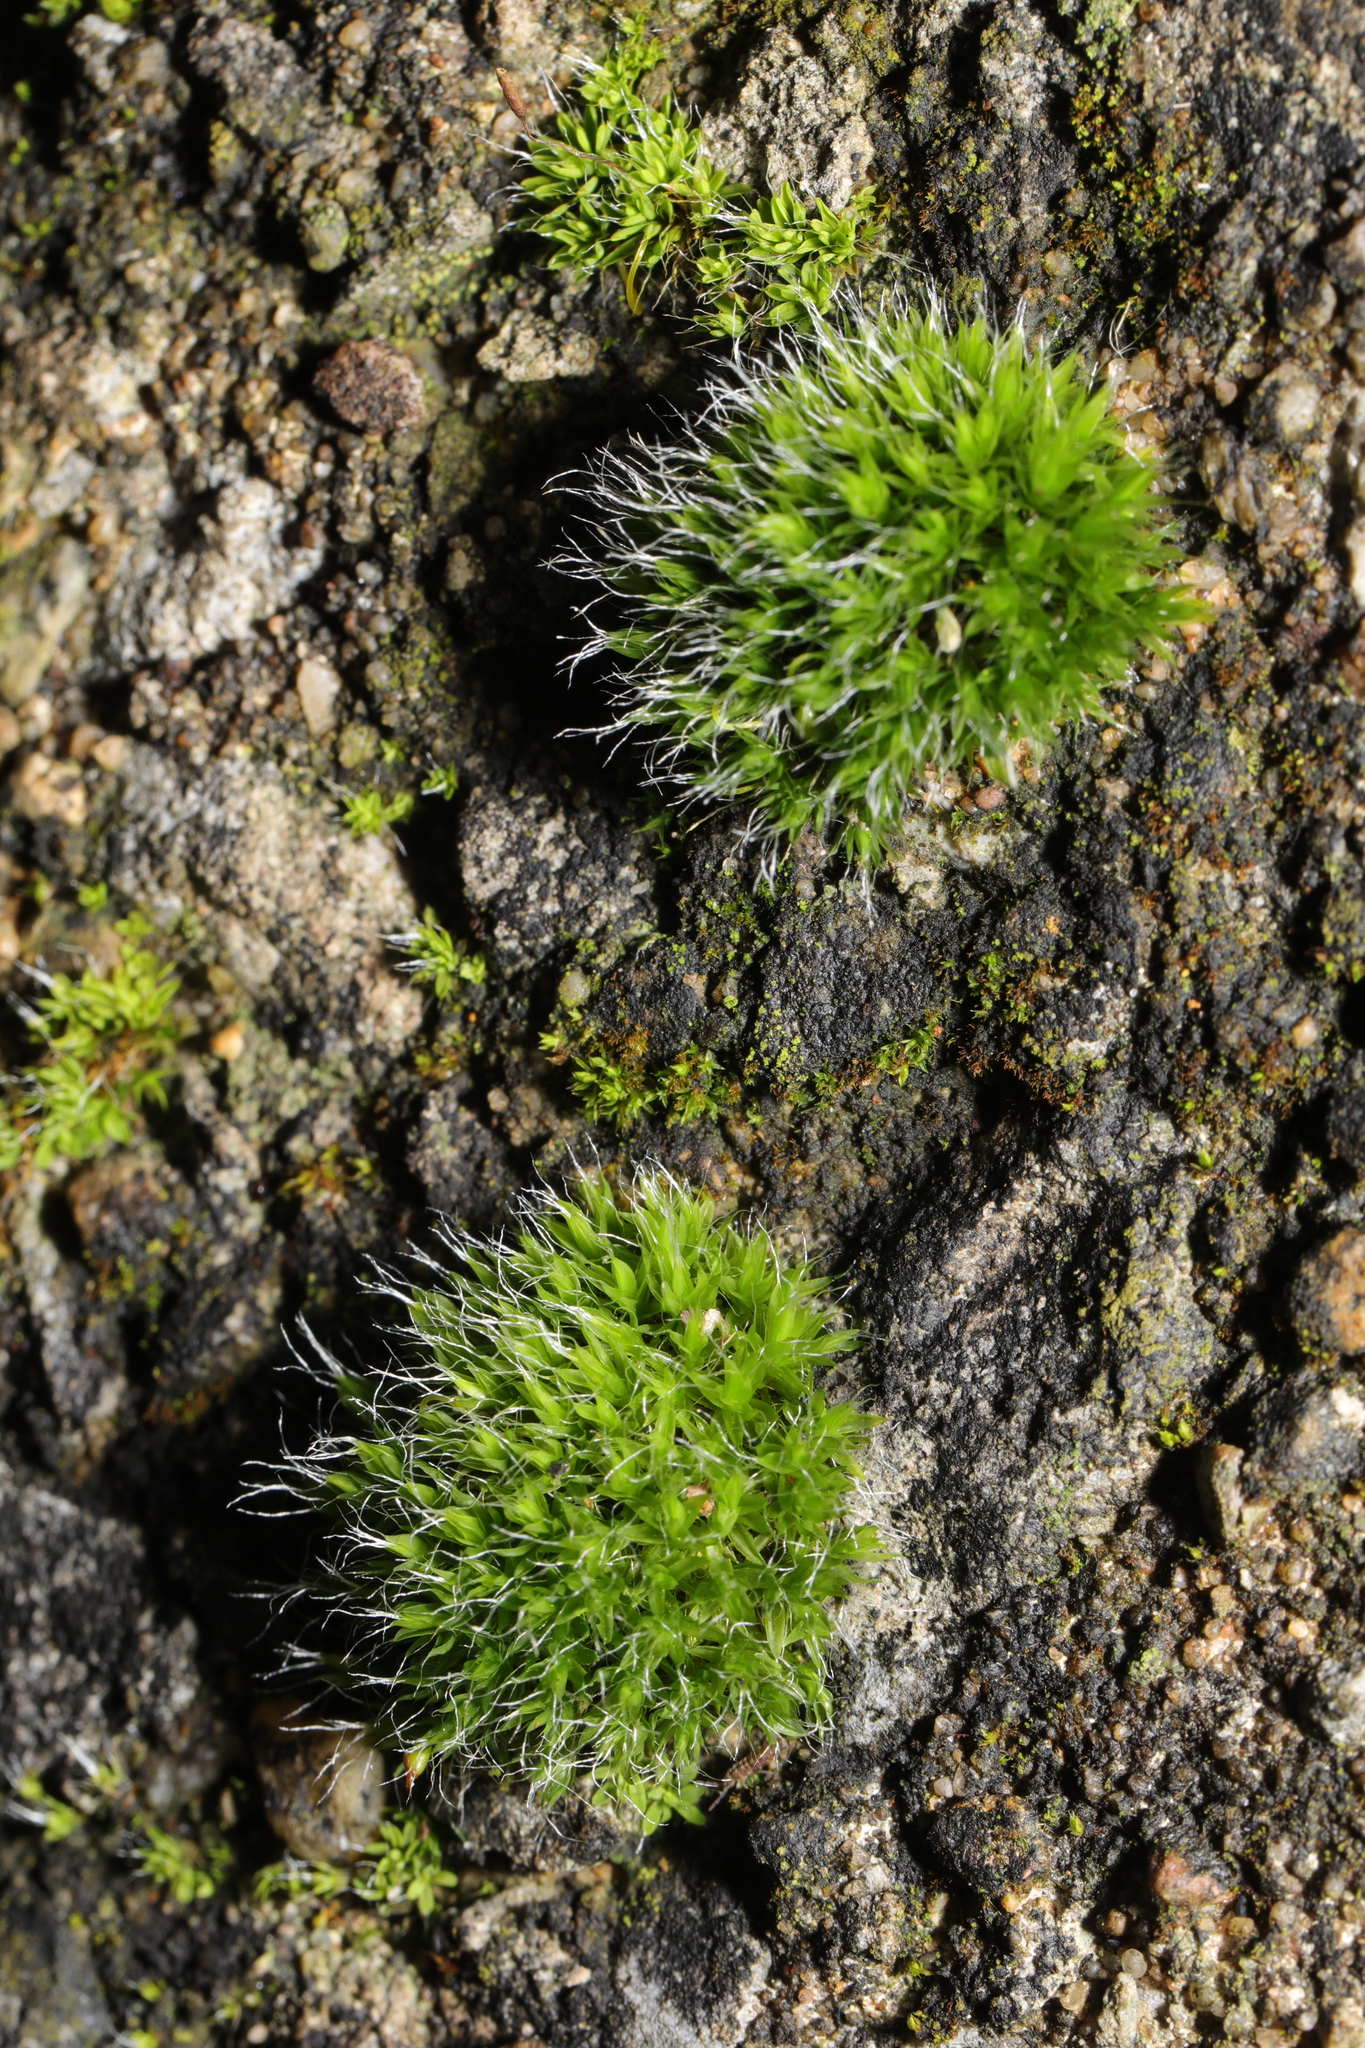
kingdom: Plantae
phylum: Bryophyta
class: Bryopsida
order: Grimmiales
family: Grimmiaceae
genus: Grimmia
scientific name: Grimmia pulvinata
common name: Grey-cushioned grimmia
